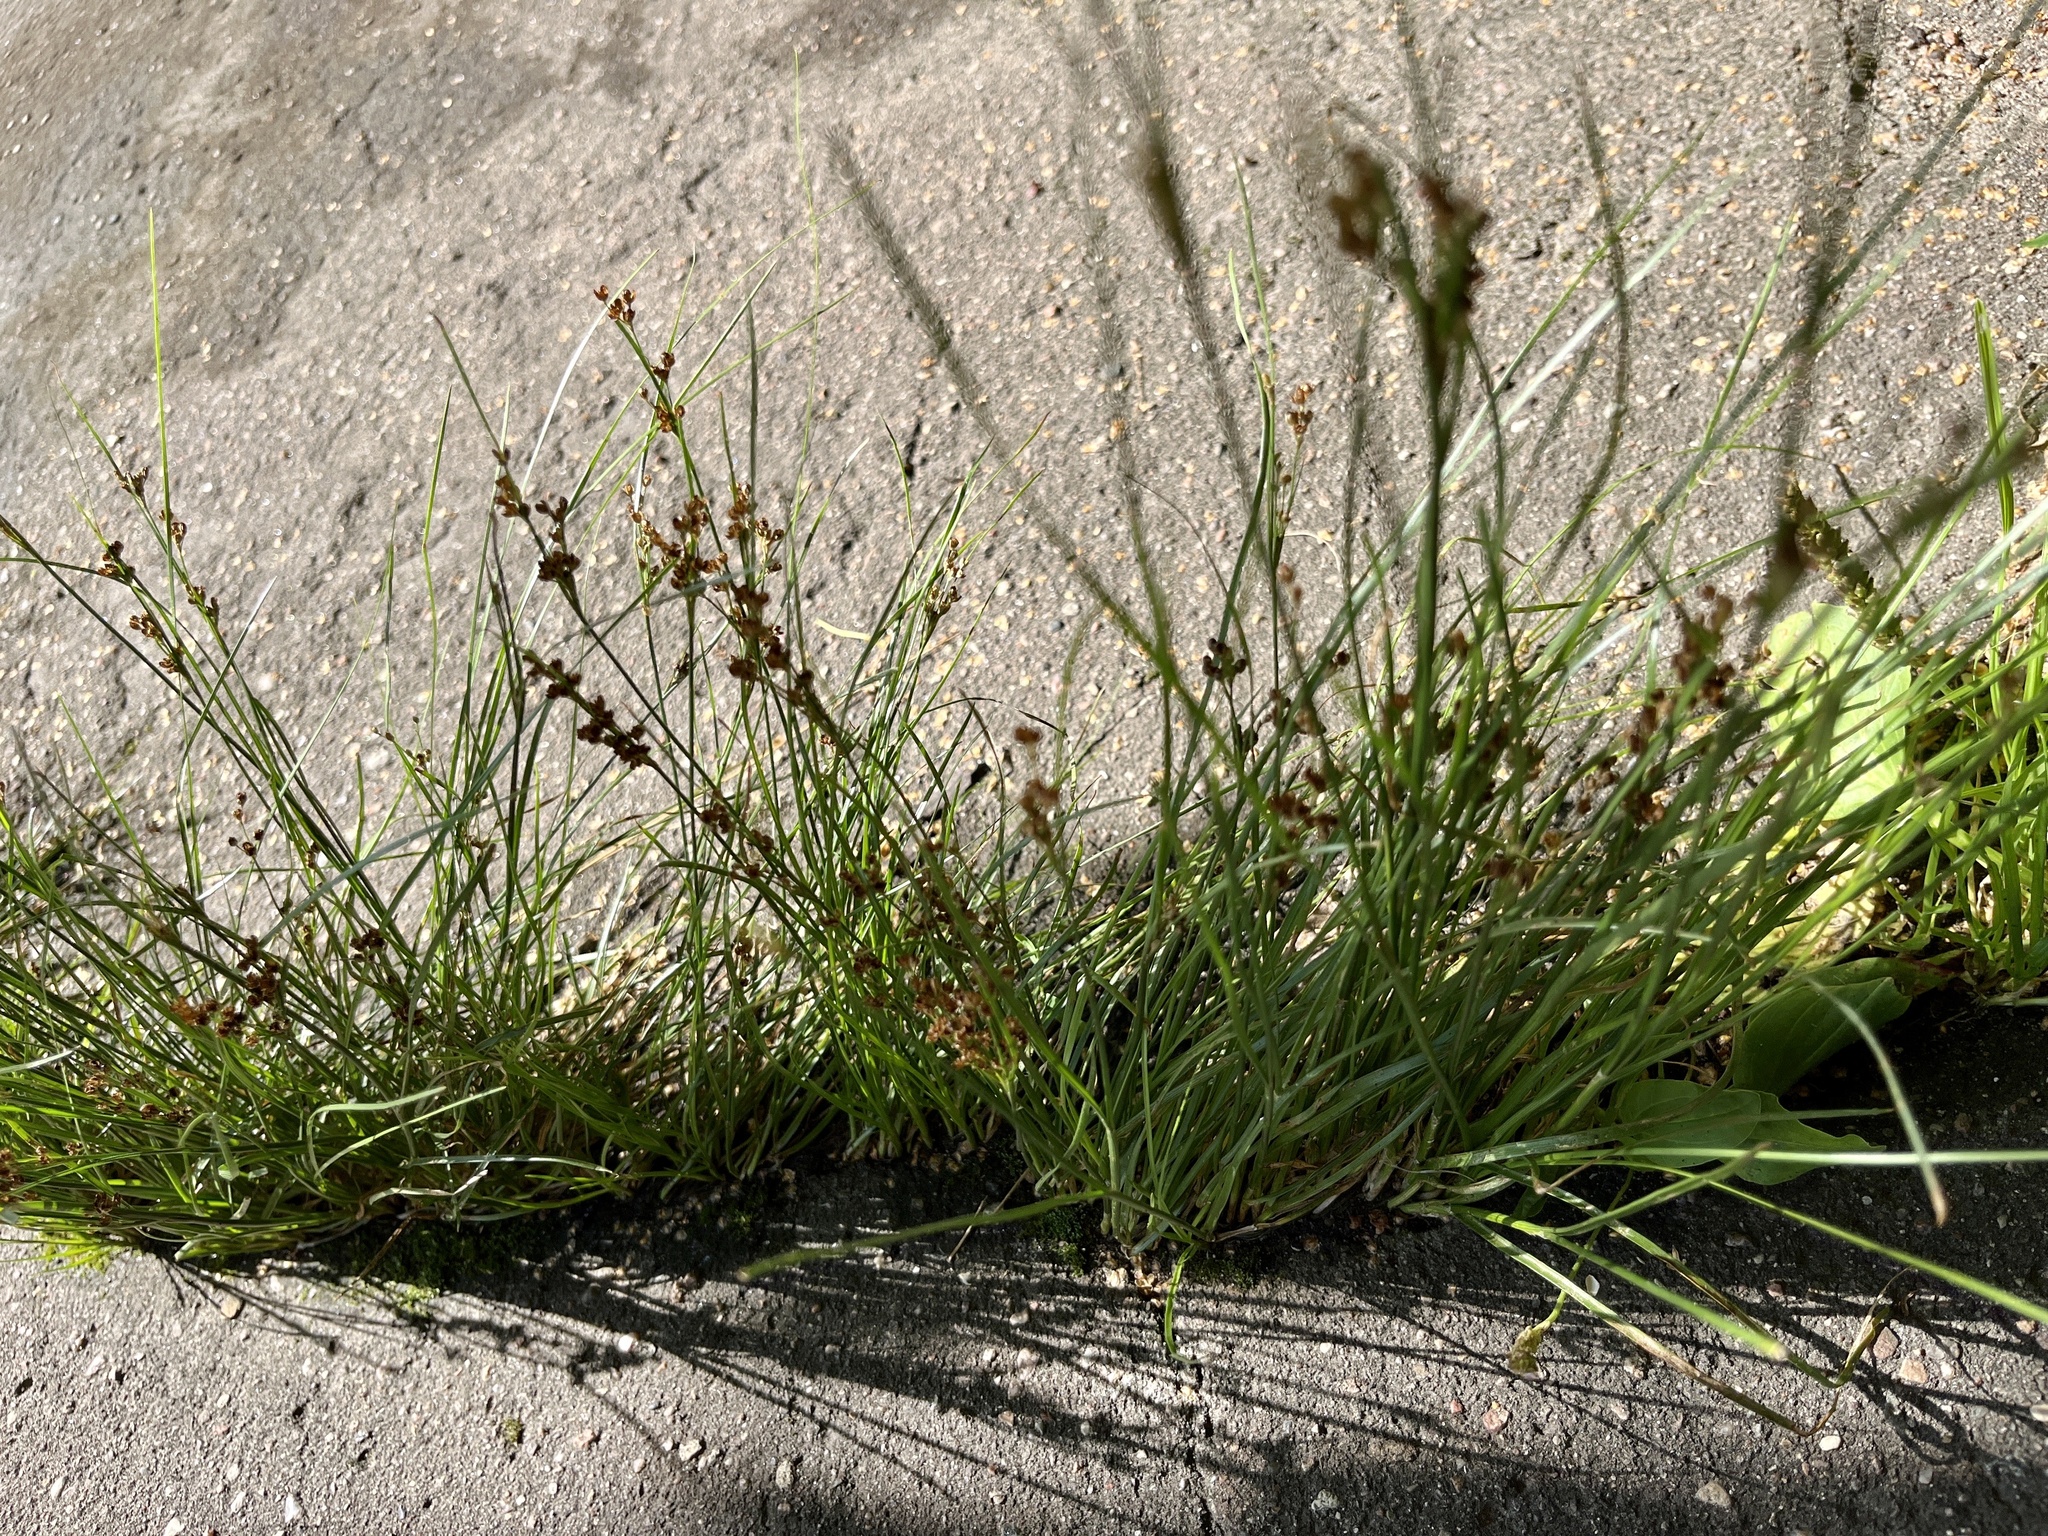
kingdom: Plantae
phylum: Tracheophyta
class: Liliopsida
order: Poales
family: Juncaceae
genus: Juncus
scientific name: Juncus compressus
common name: Round-fruited rush
